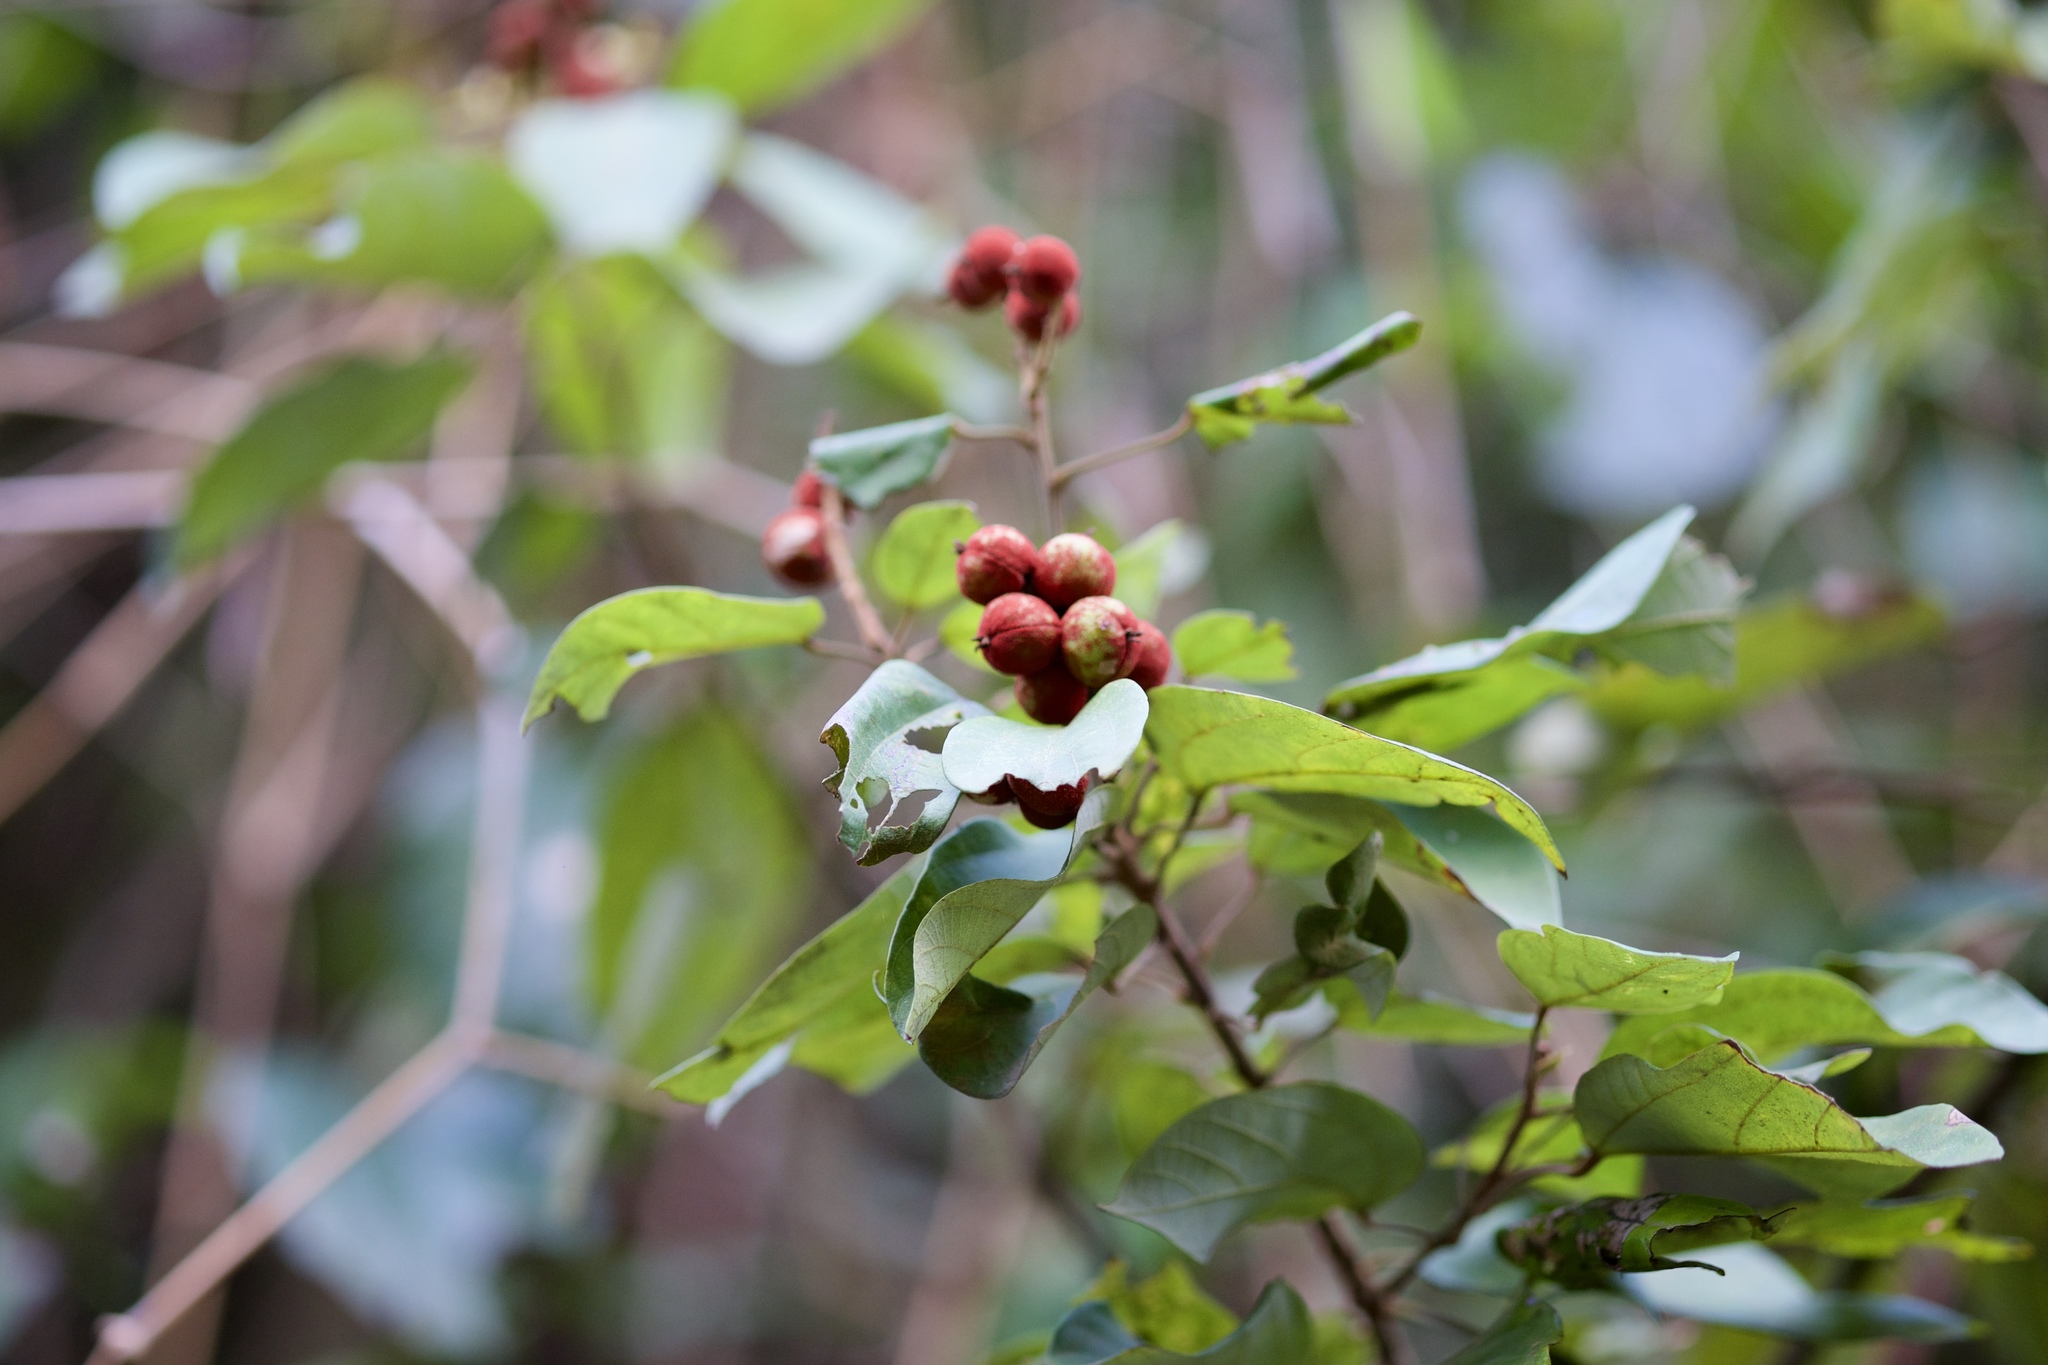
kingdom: Plantae
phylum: Tracheophyta
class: Magnoliopsida
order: Malpighiales
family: Euphorbiaceae
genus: Mallotus
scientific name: Mallotus philippensis
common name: Kamala tree
